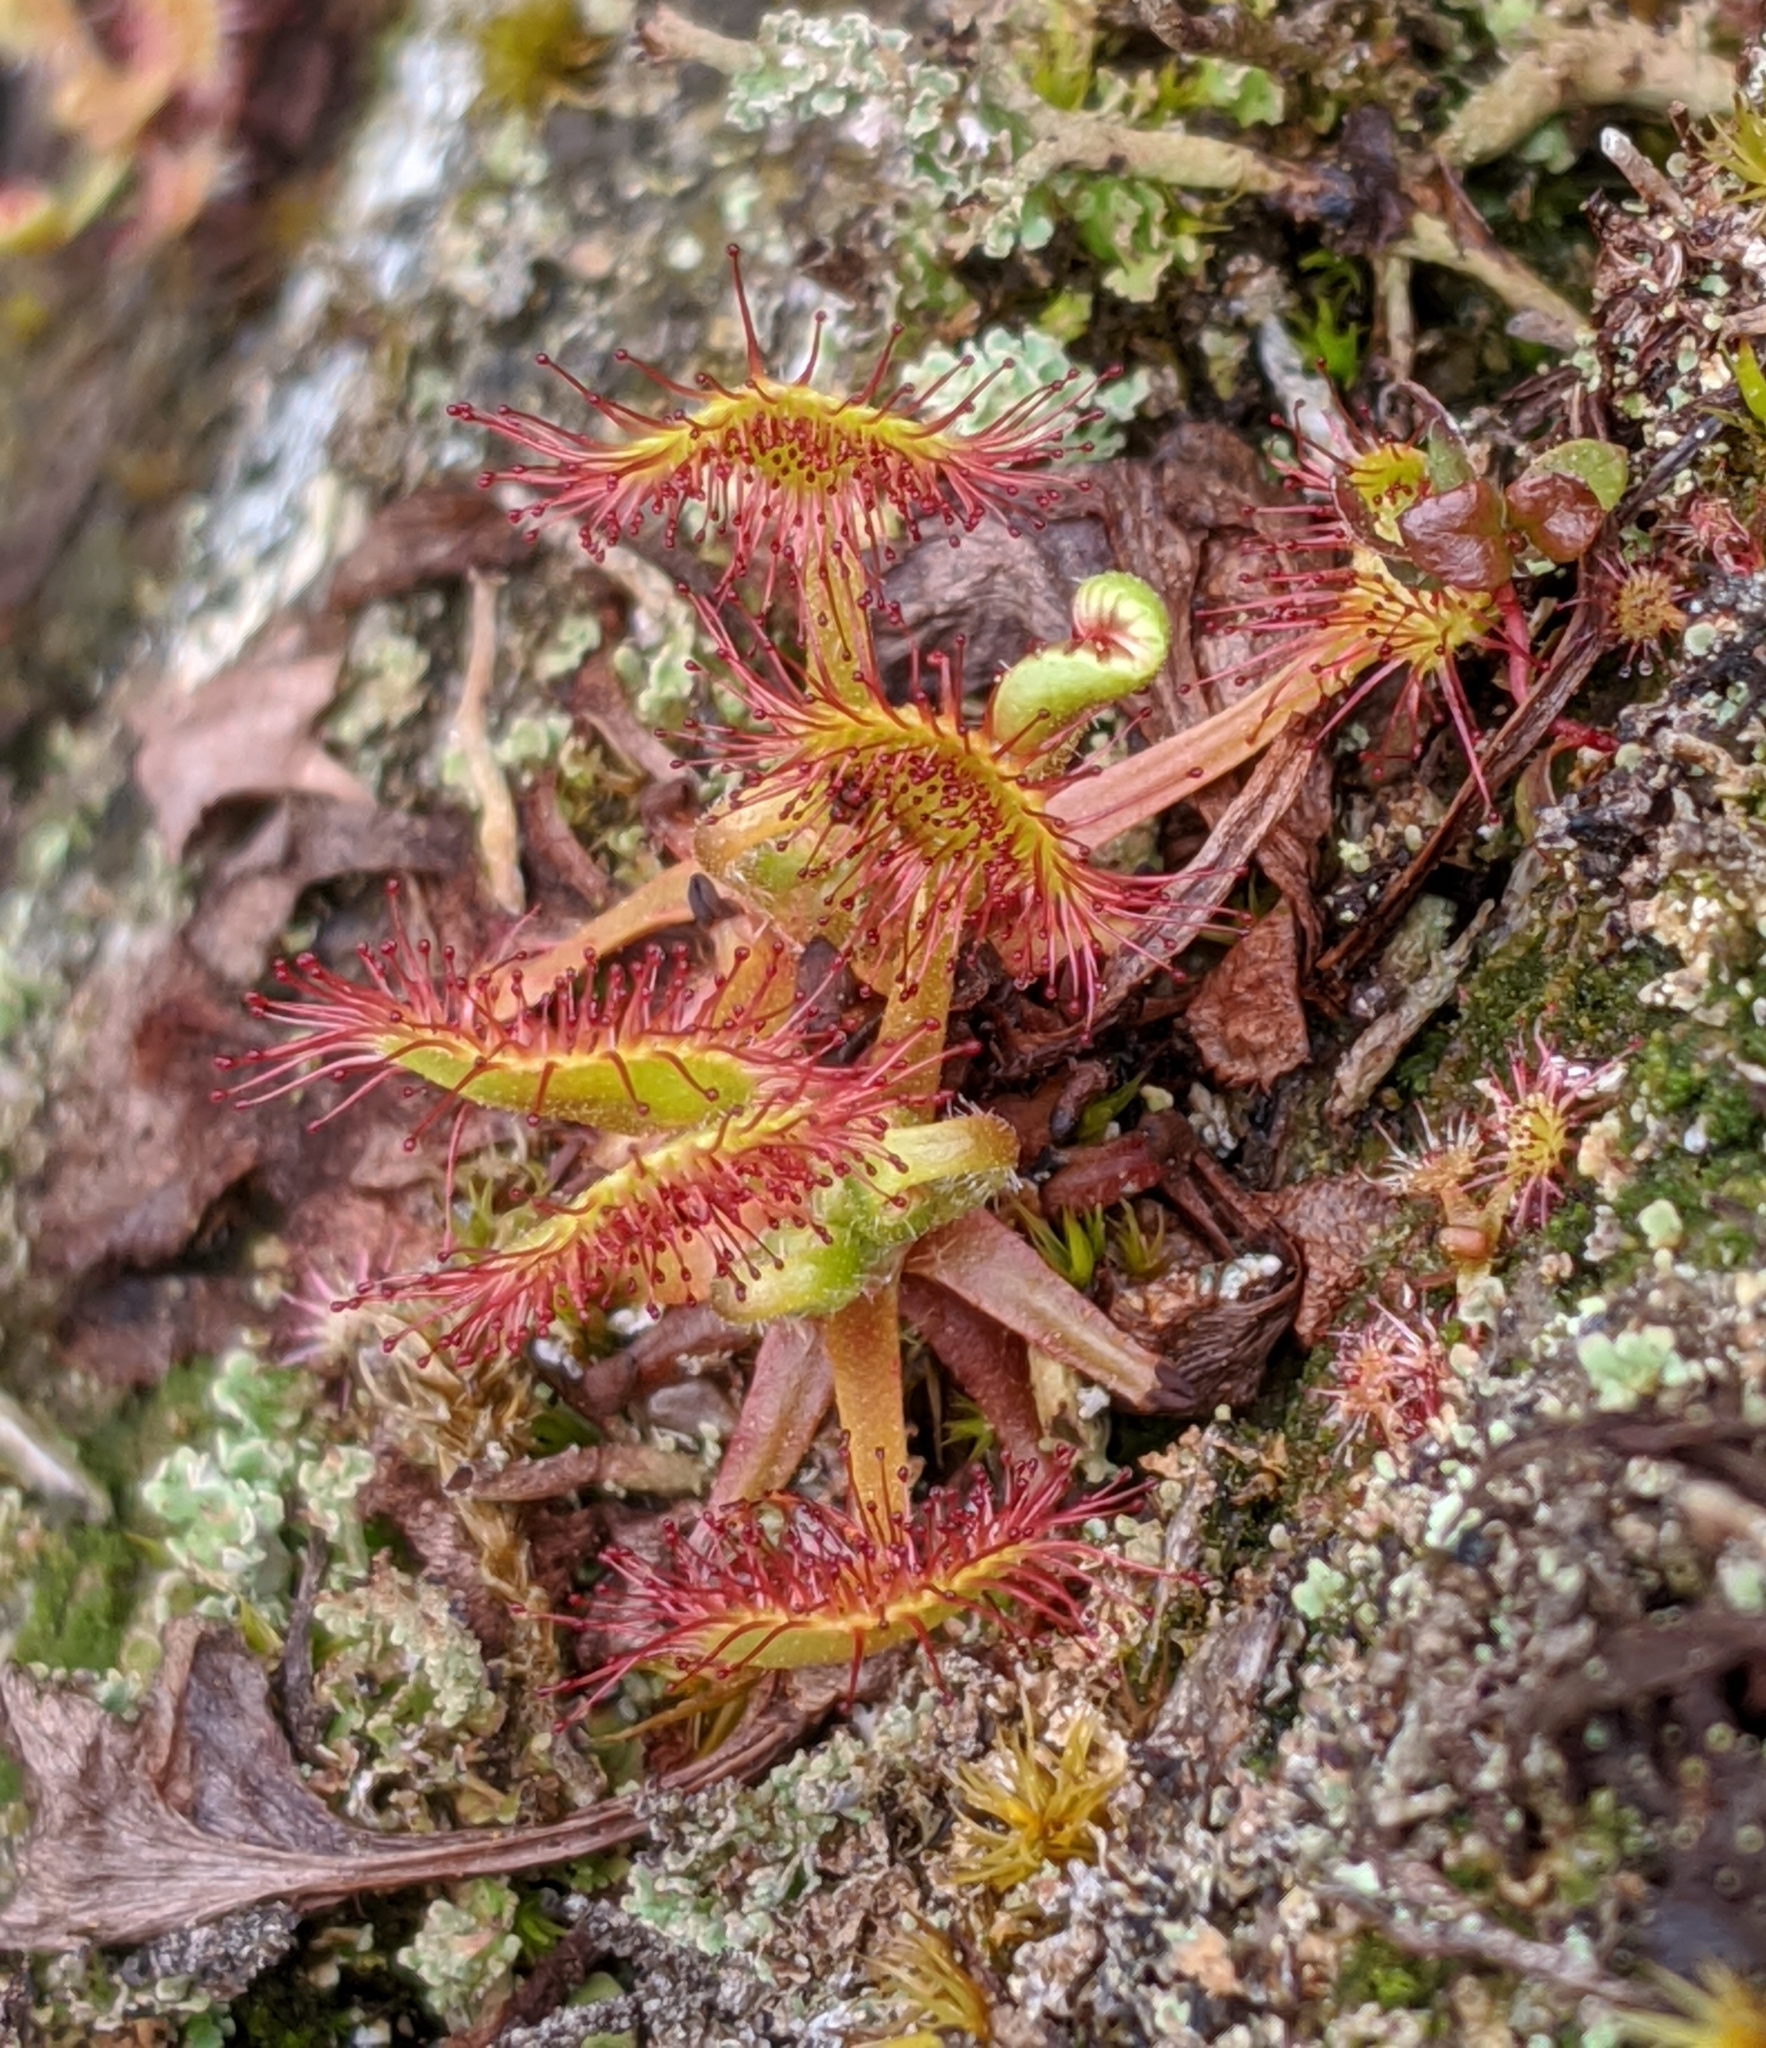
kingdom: Plantae
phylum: Tracheophyta
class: Magnoliopsida
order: Caryophyllales
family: Droseraceae
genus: Drosera
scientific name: Drosera rotundifolia
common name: Round-leaved sundew
